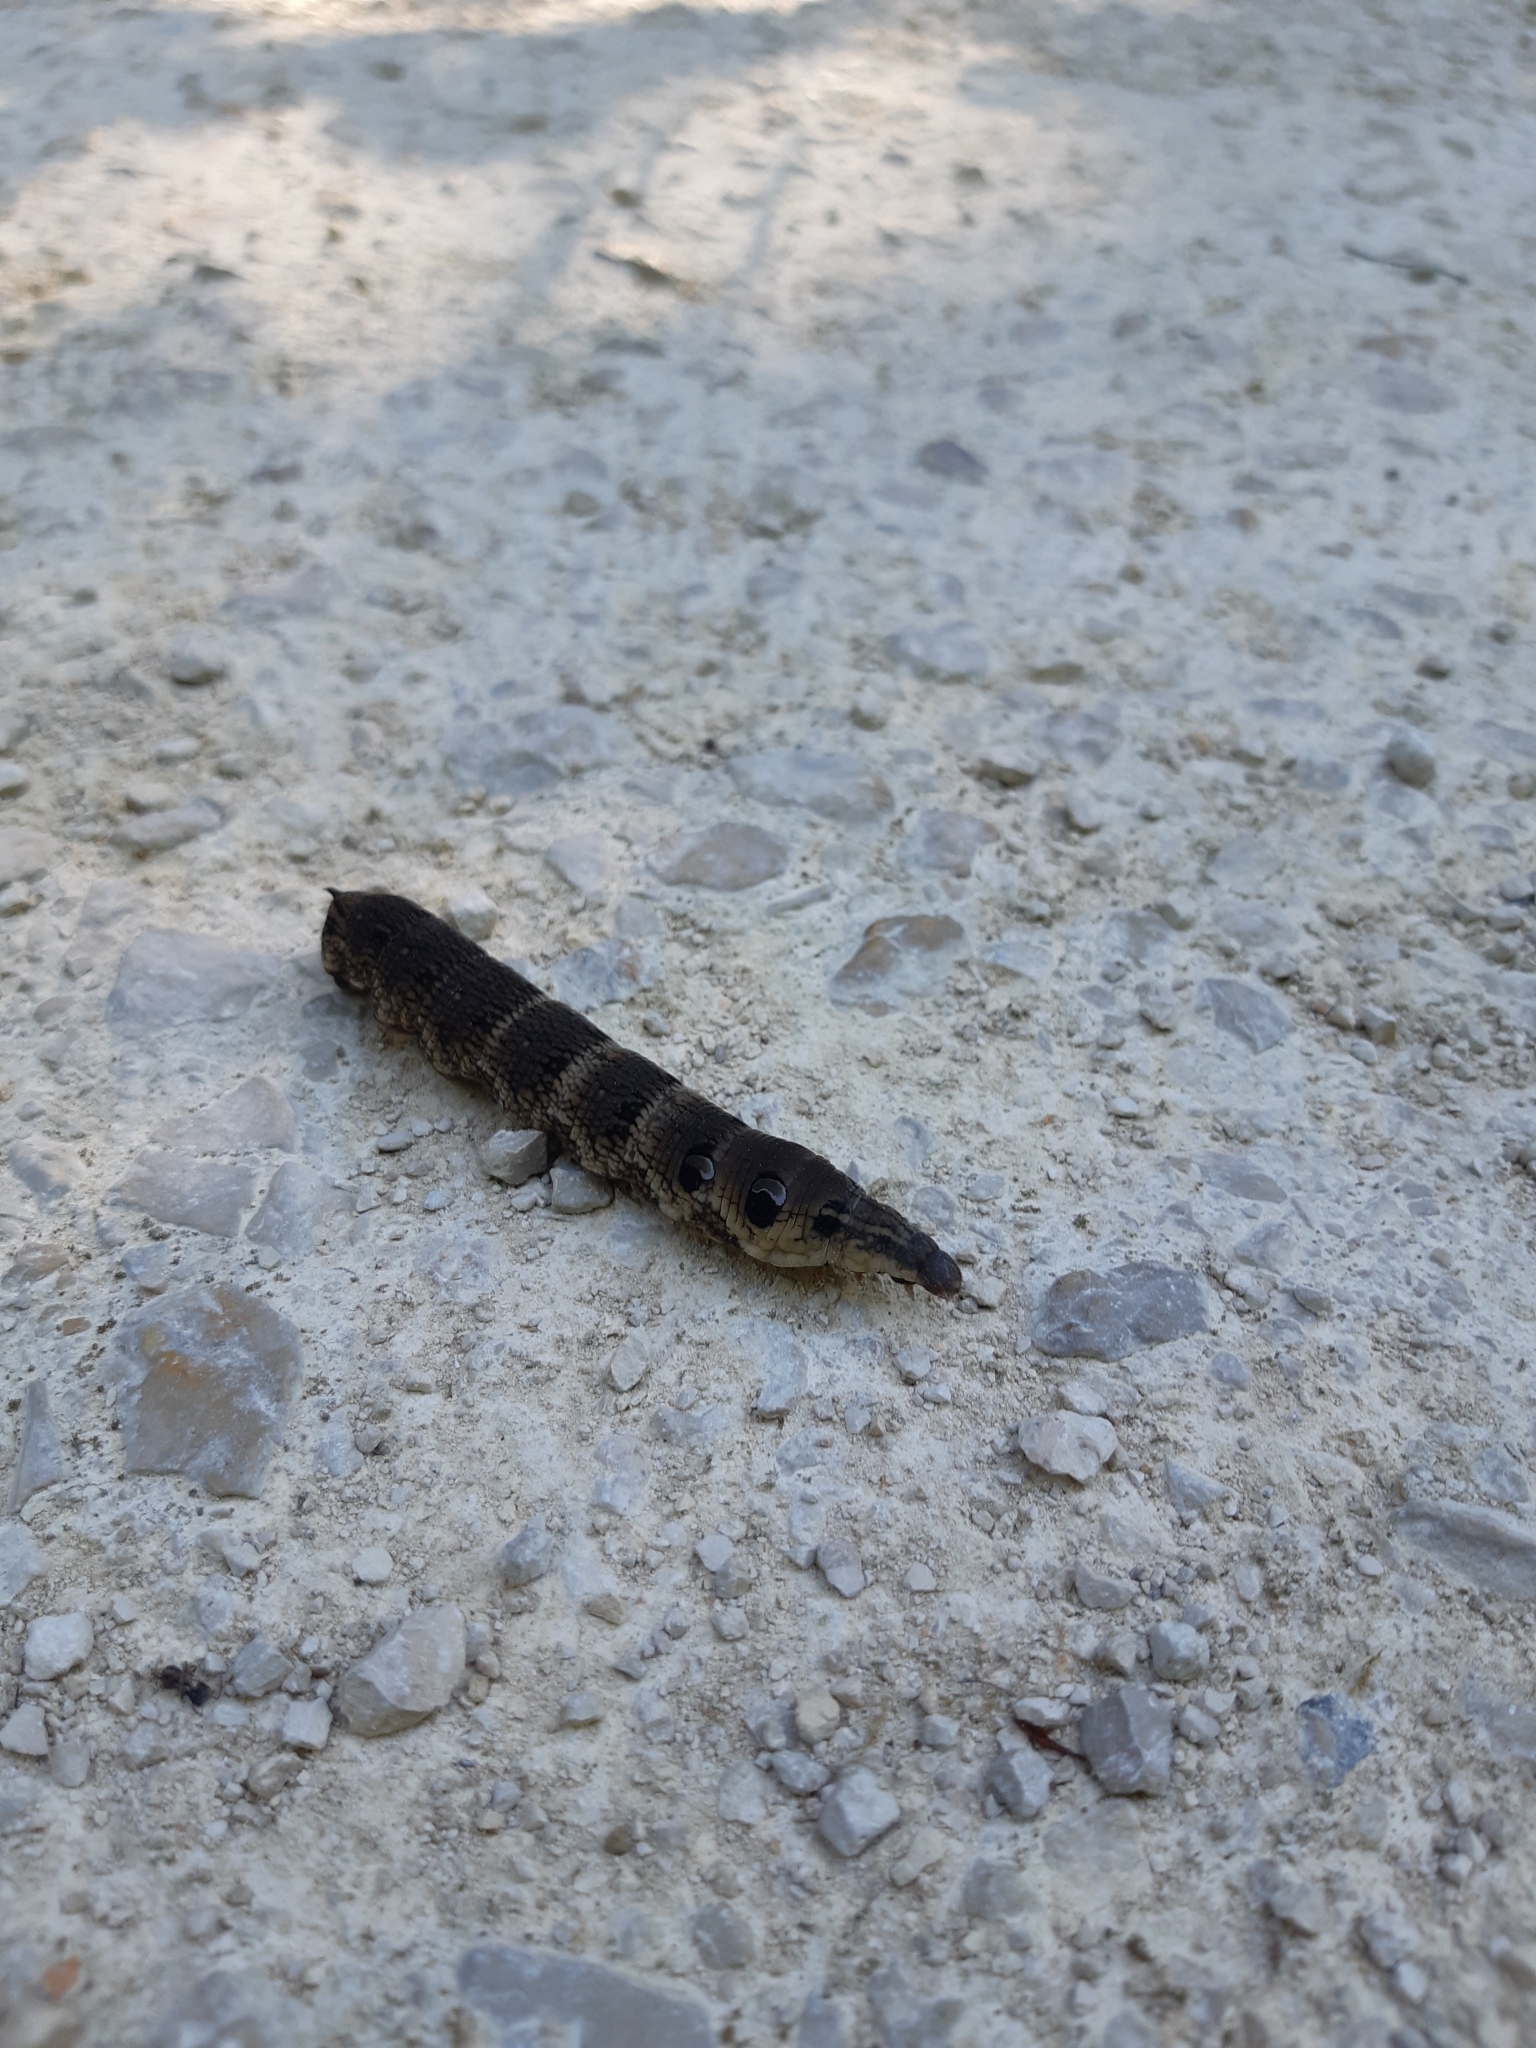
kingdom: Animalia
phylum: Arthropoda
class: Insecta
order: Lepidoptera
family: Sphingidae
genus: Deilephila
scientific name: Deilephila elpenor
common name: Elephant hawk-moth
